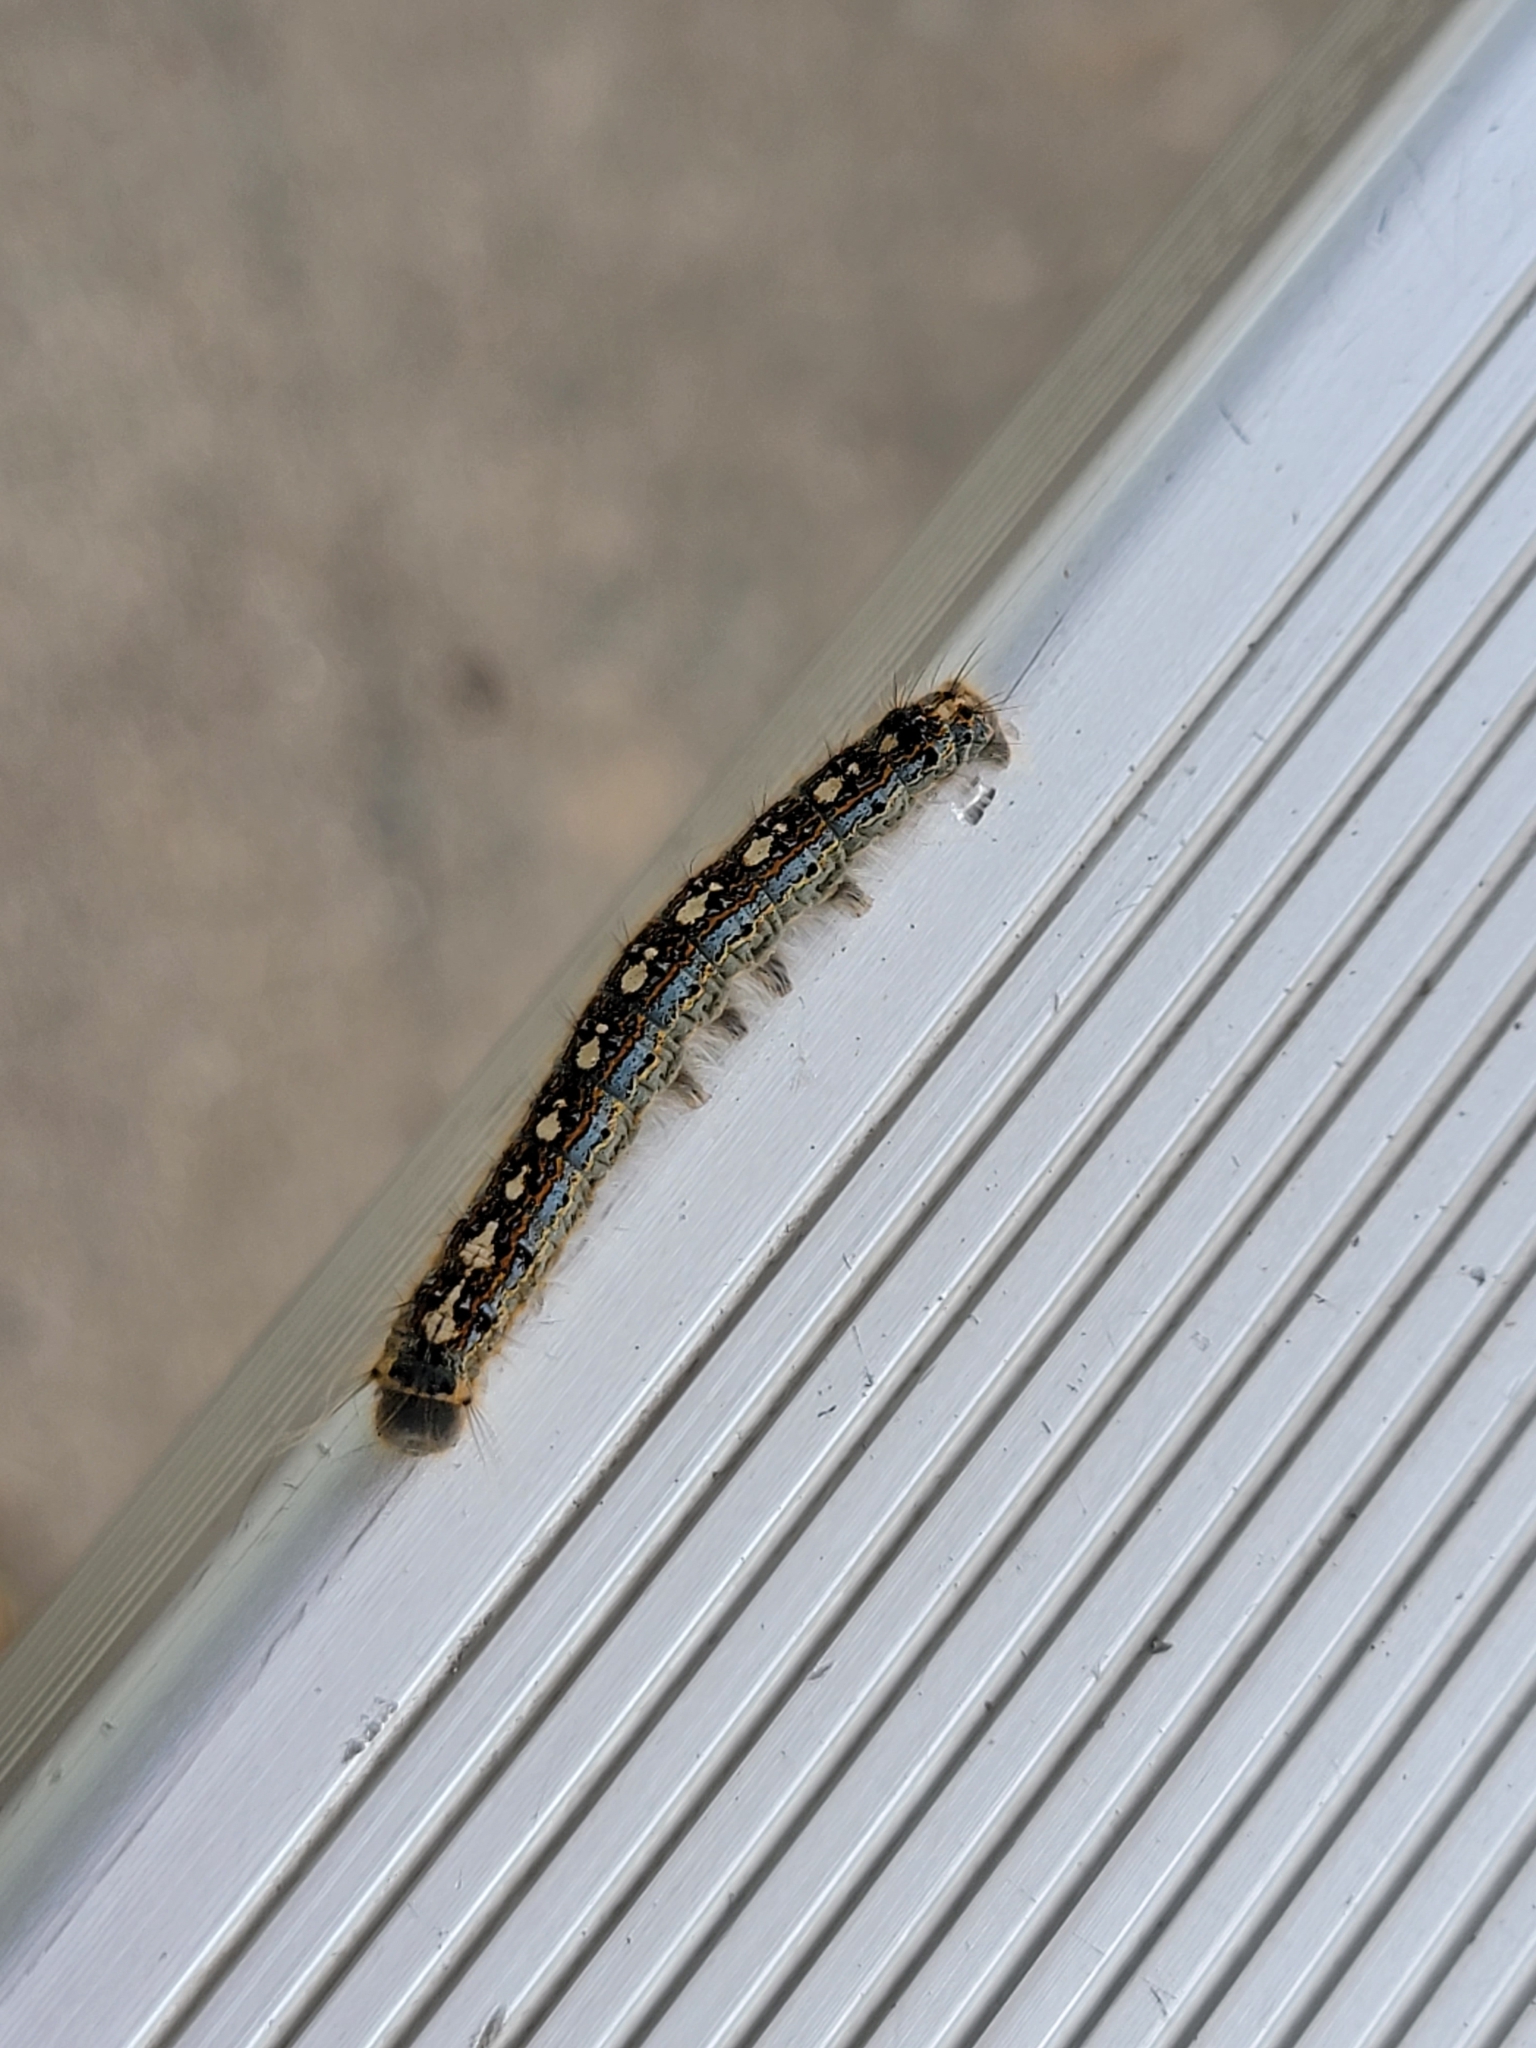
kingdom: Animalia
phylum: Arthropoda
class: Insecta
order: Lepidoptera
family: Lasiocampidae
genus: Malacosoma
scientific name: Malacosoma disstria
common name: Forest tent caterpillar
